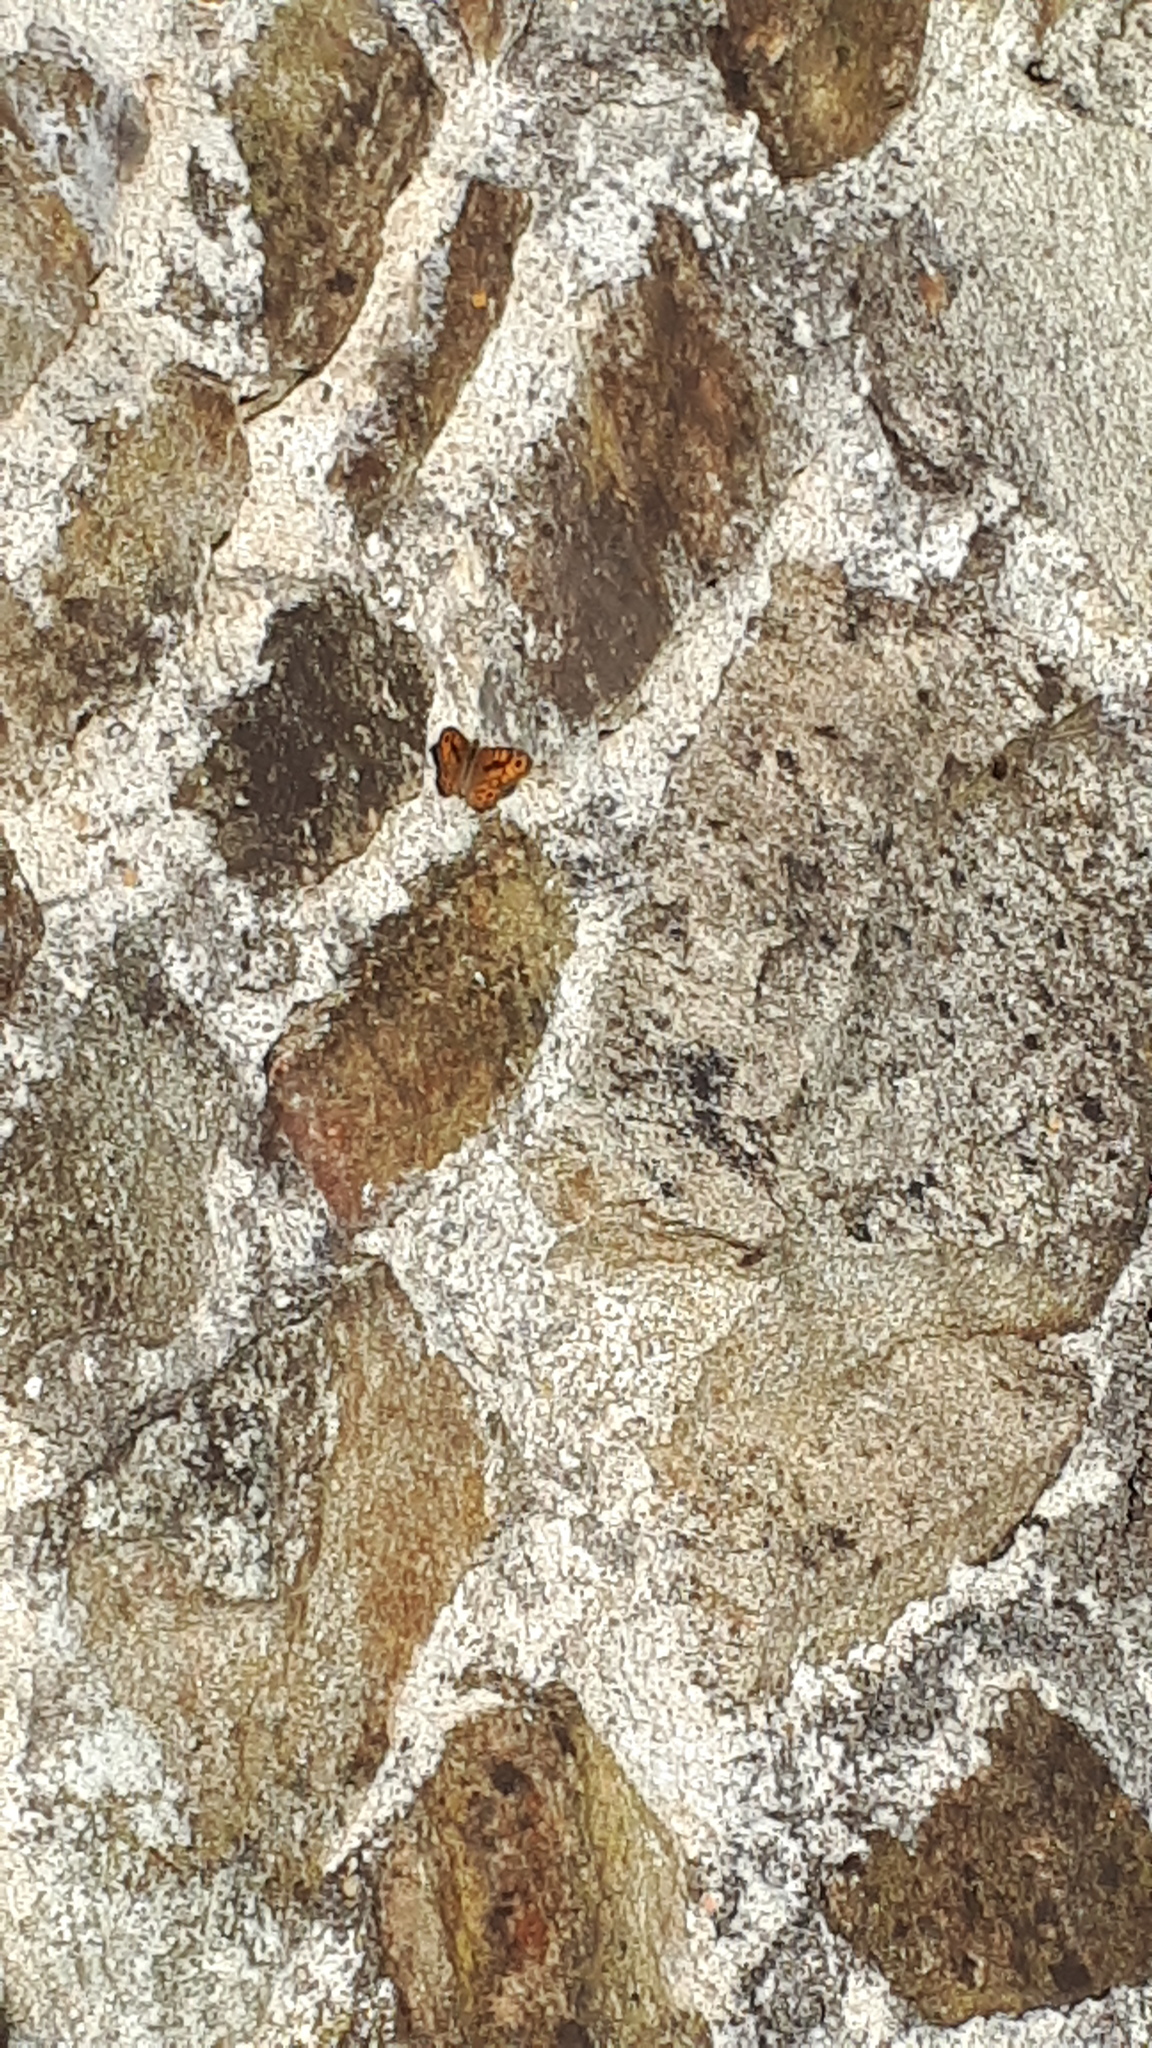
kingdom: Animalia
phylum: Arthropoda
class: Insecta
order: Lepidoptera
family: Nymphalidae
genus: Pararge
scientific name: Pararge Lasiommata megera
